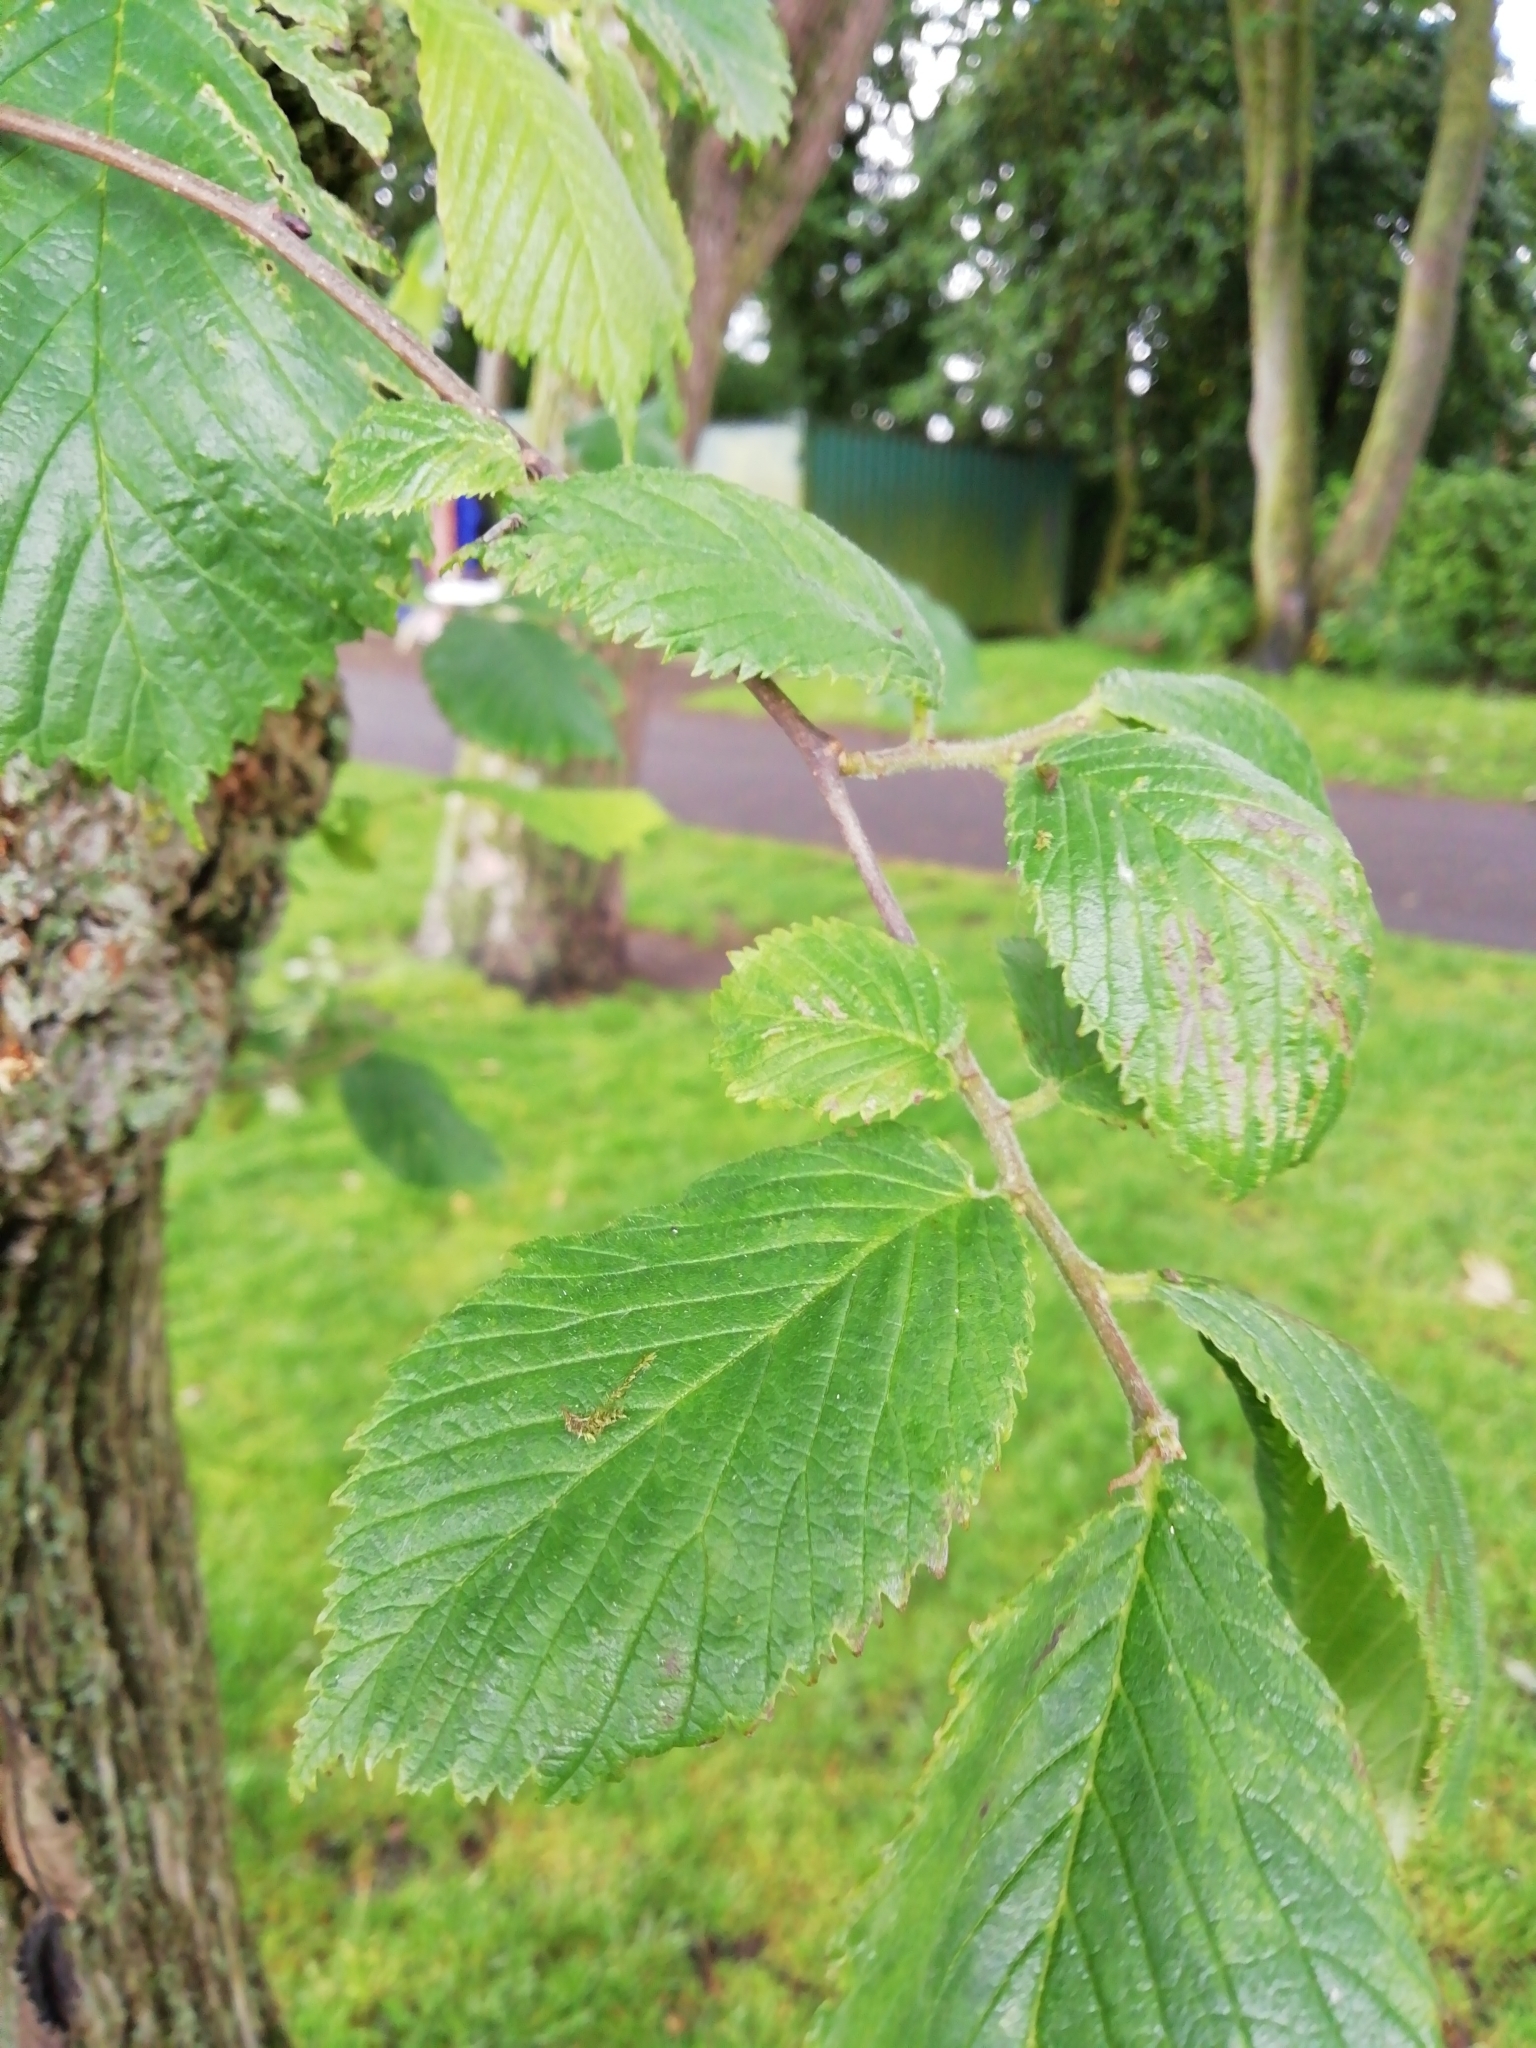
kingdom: Plantae
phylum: Tracheophyta
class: Magnoliopsida
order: Rosales
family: Ulmaceae
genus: Ulmus
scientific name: Ulmus glabra
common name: Wych elm
